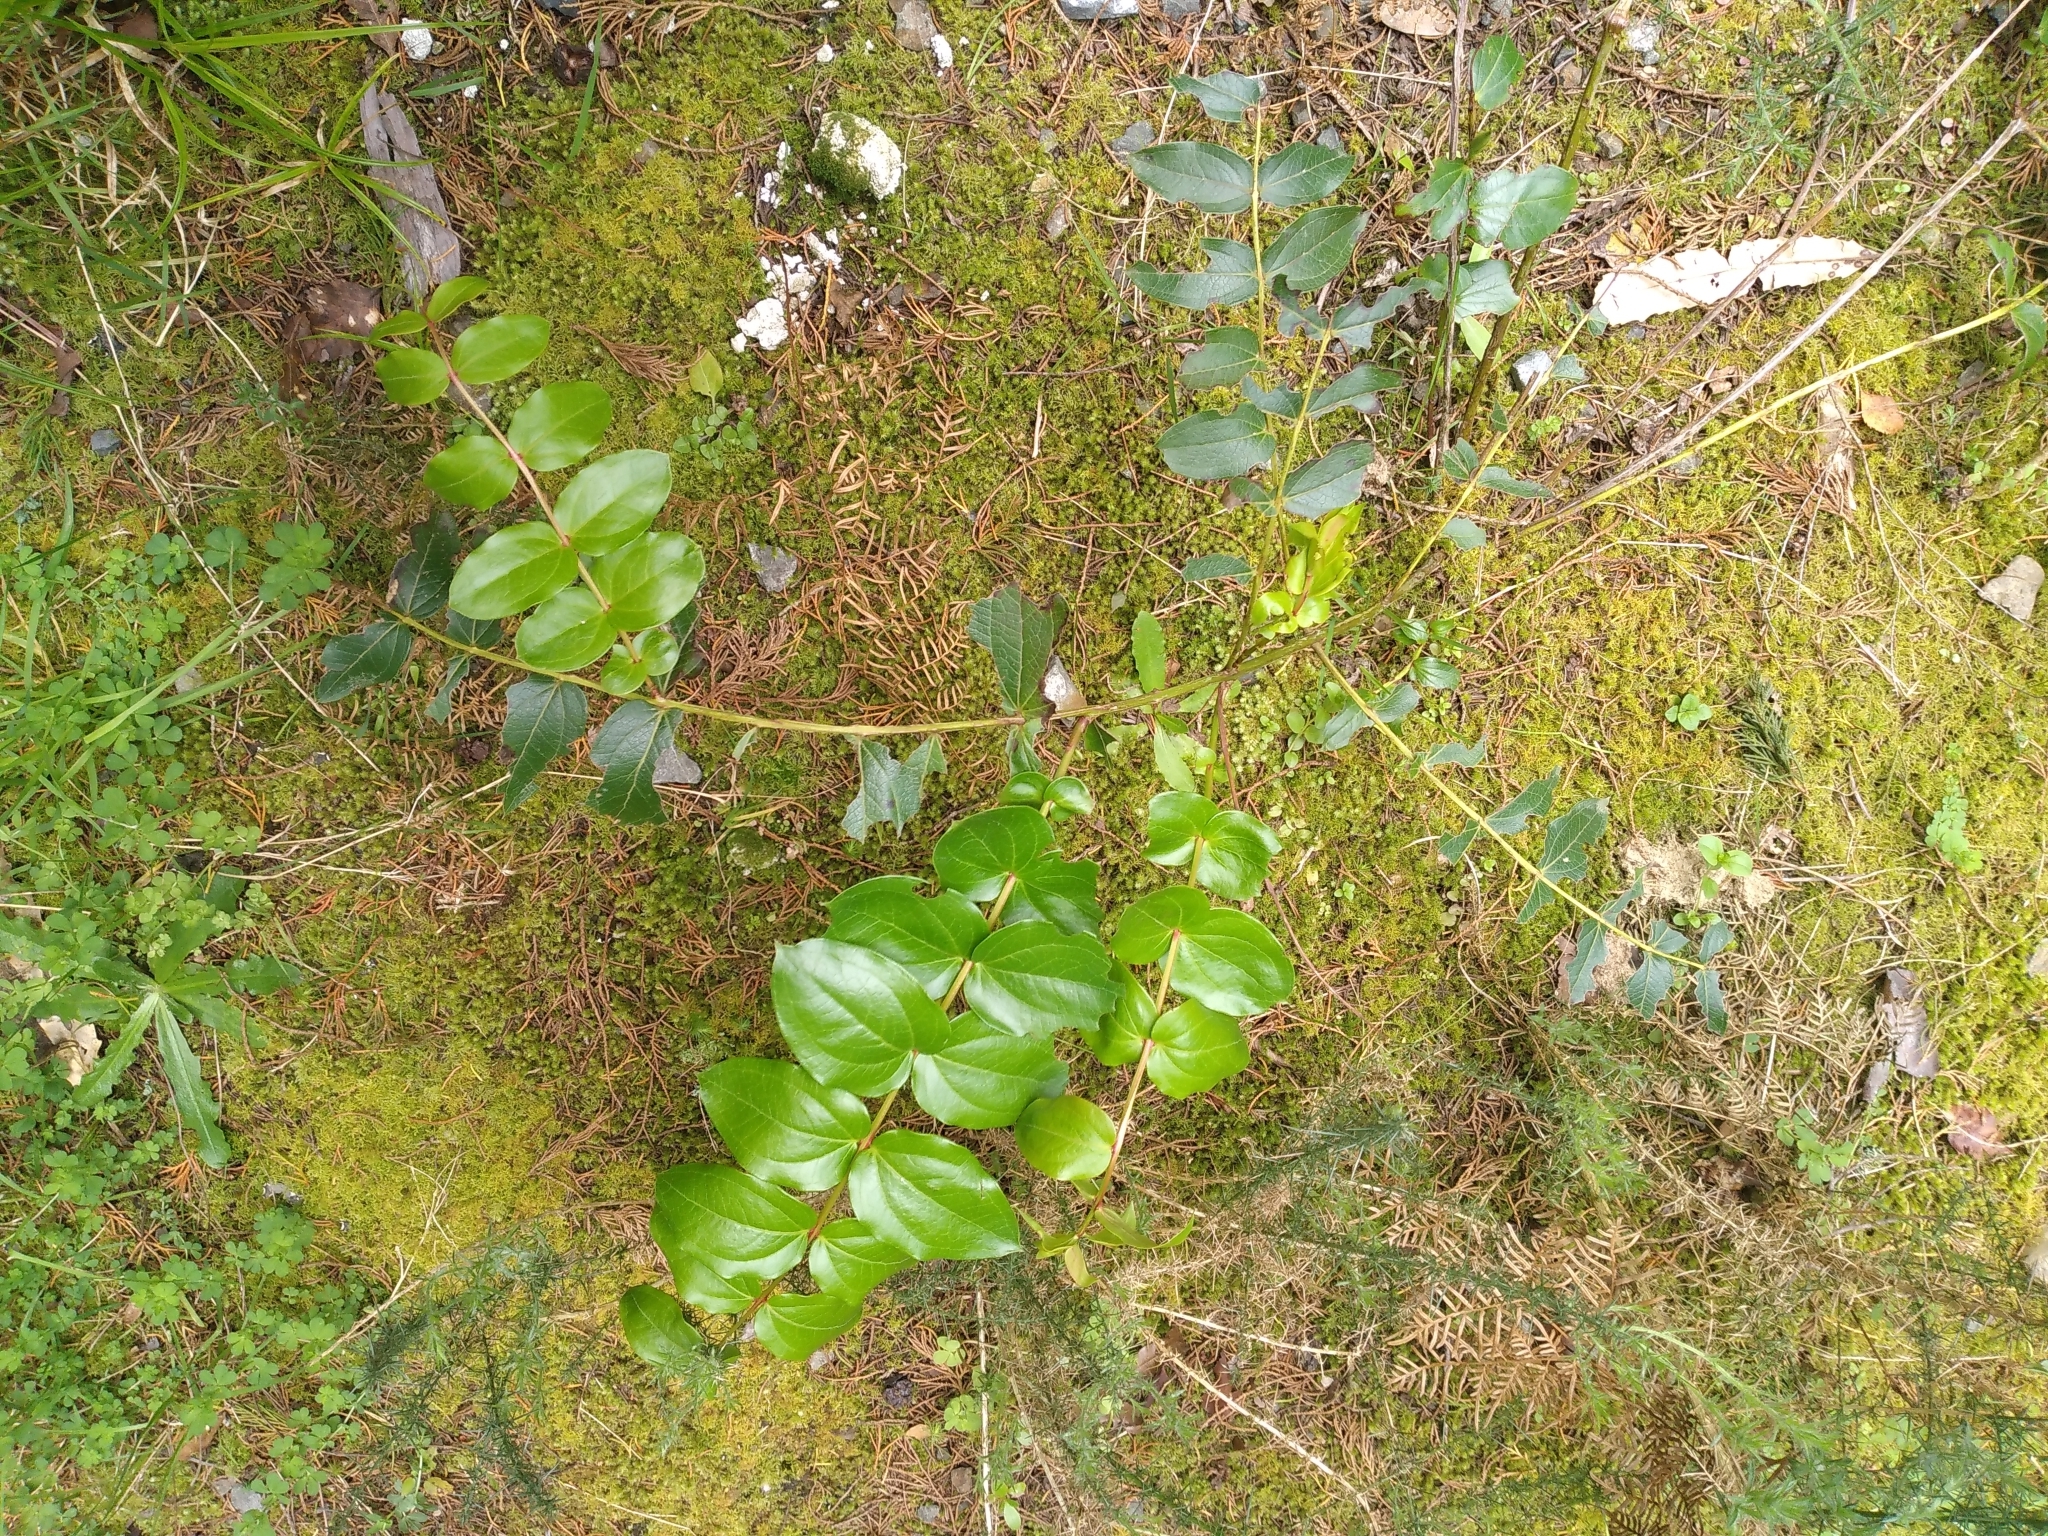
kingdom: Plantae
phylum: Tracheophyta
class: Magnoliopsida
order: Cucurbitales
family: Coriariaceae
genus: Coriaria
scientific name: Coriaria arborea
